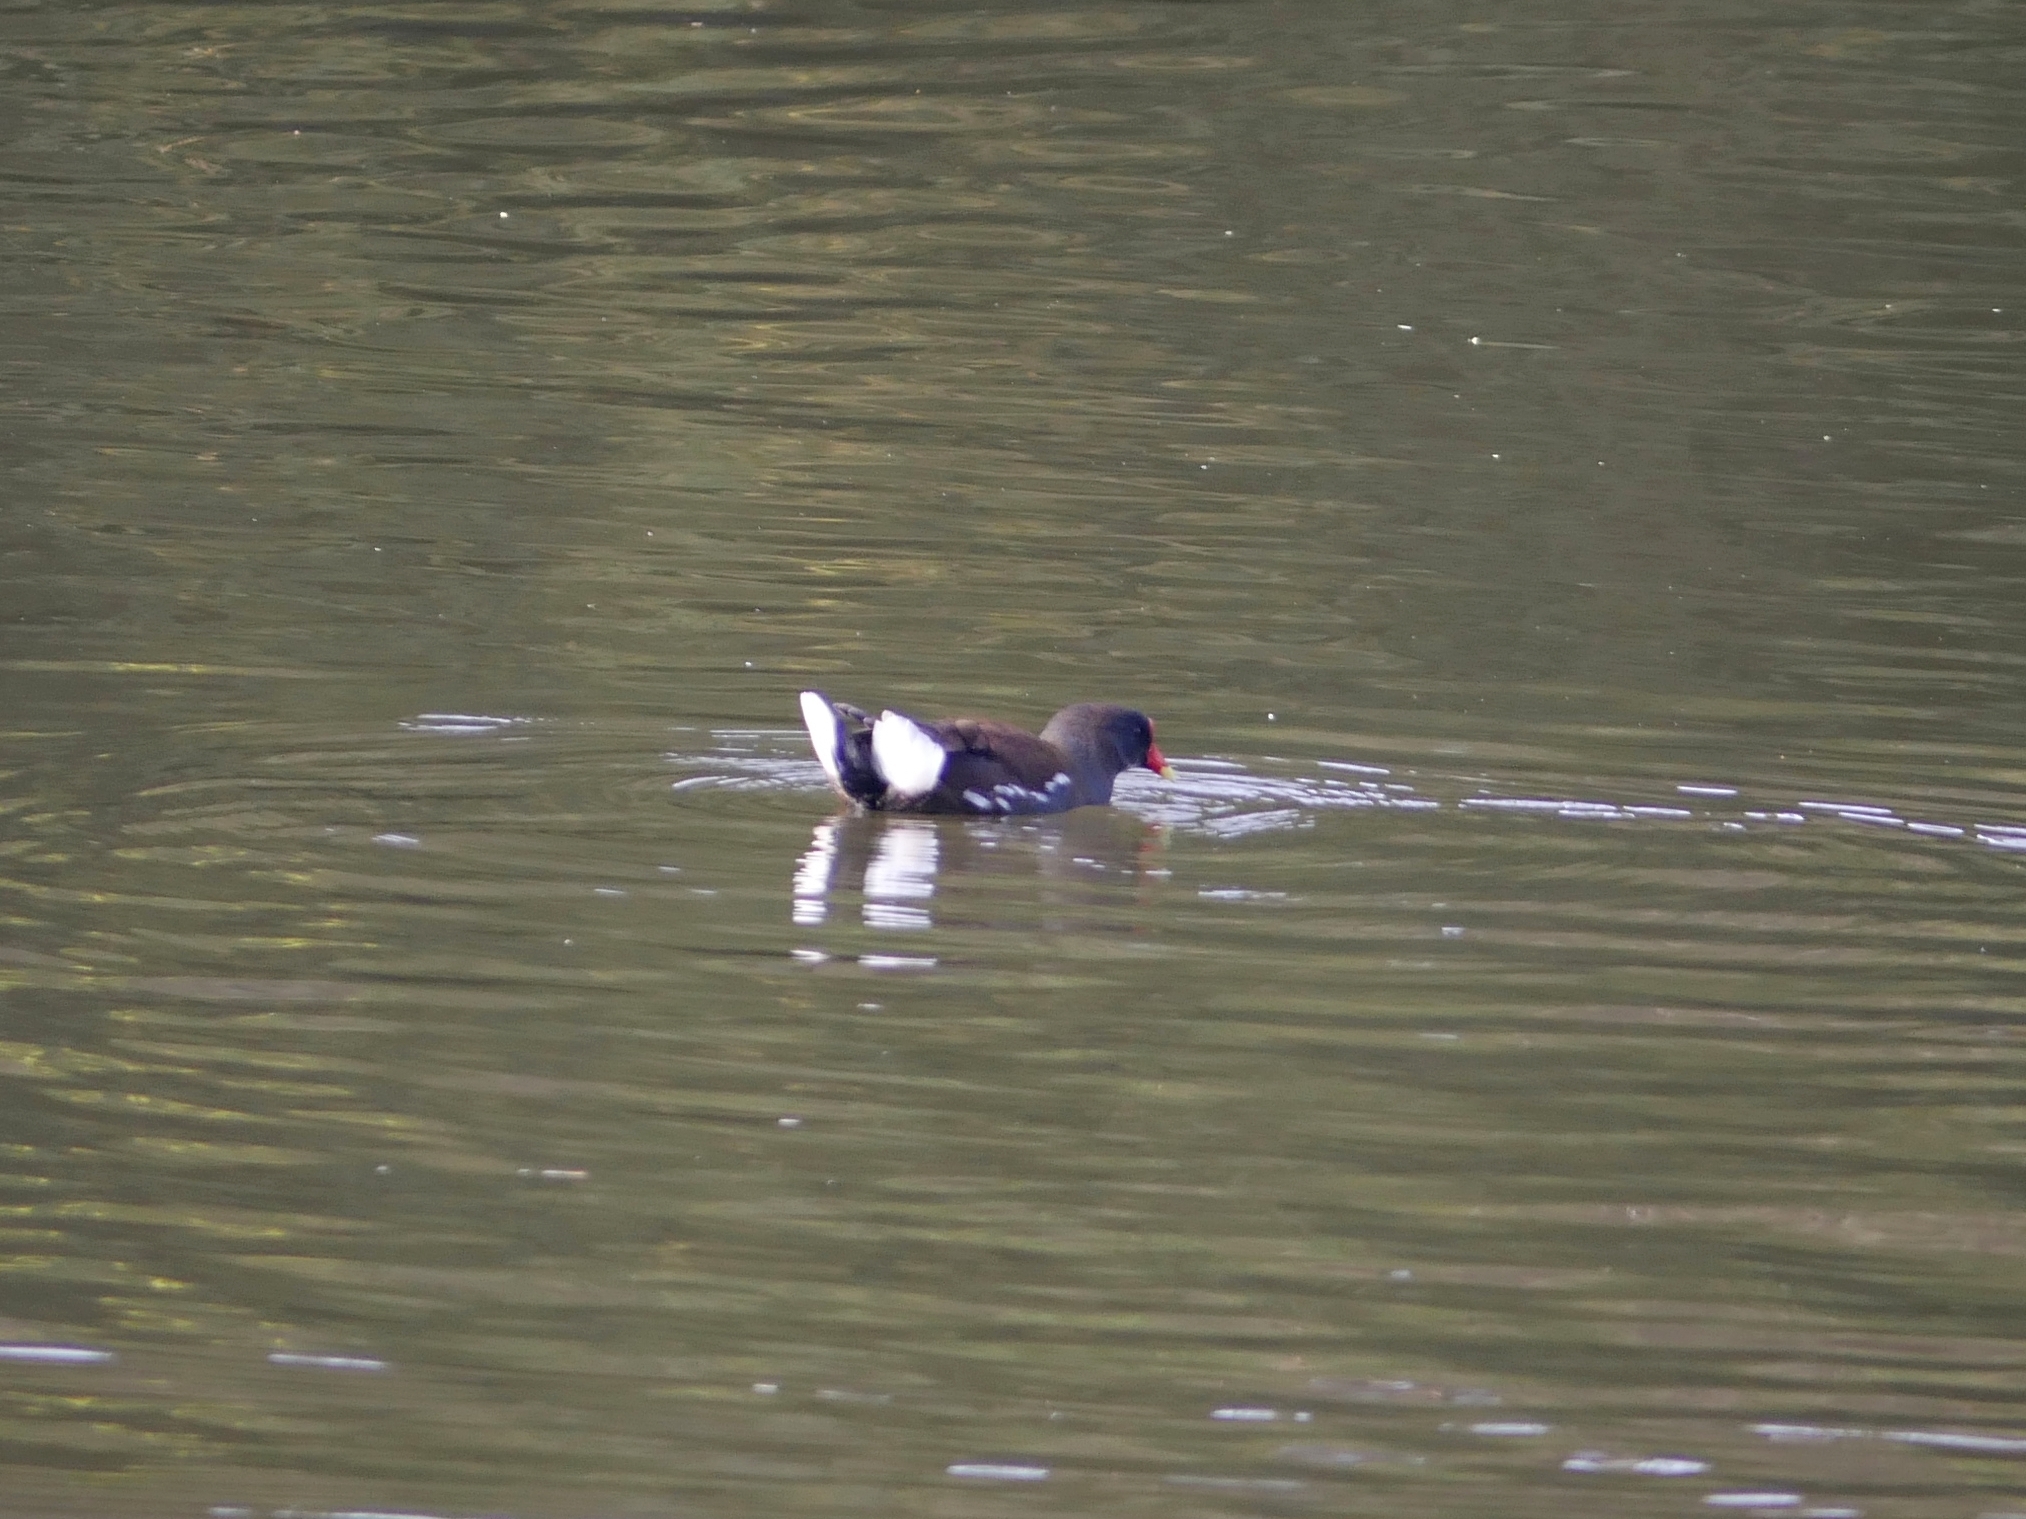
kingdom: Animalia
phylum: Chordata
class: Aves
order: Gruiformes
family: Rallidae
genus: Gallinula
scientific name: Gallinula chloropus
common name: Common moorhen
